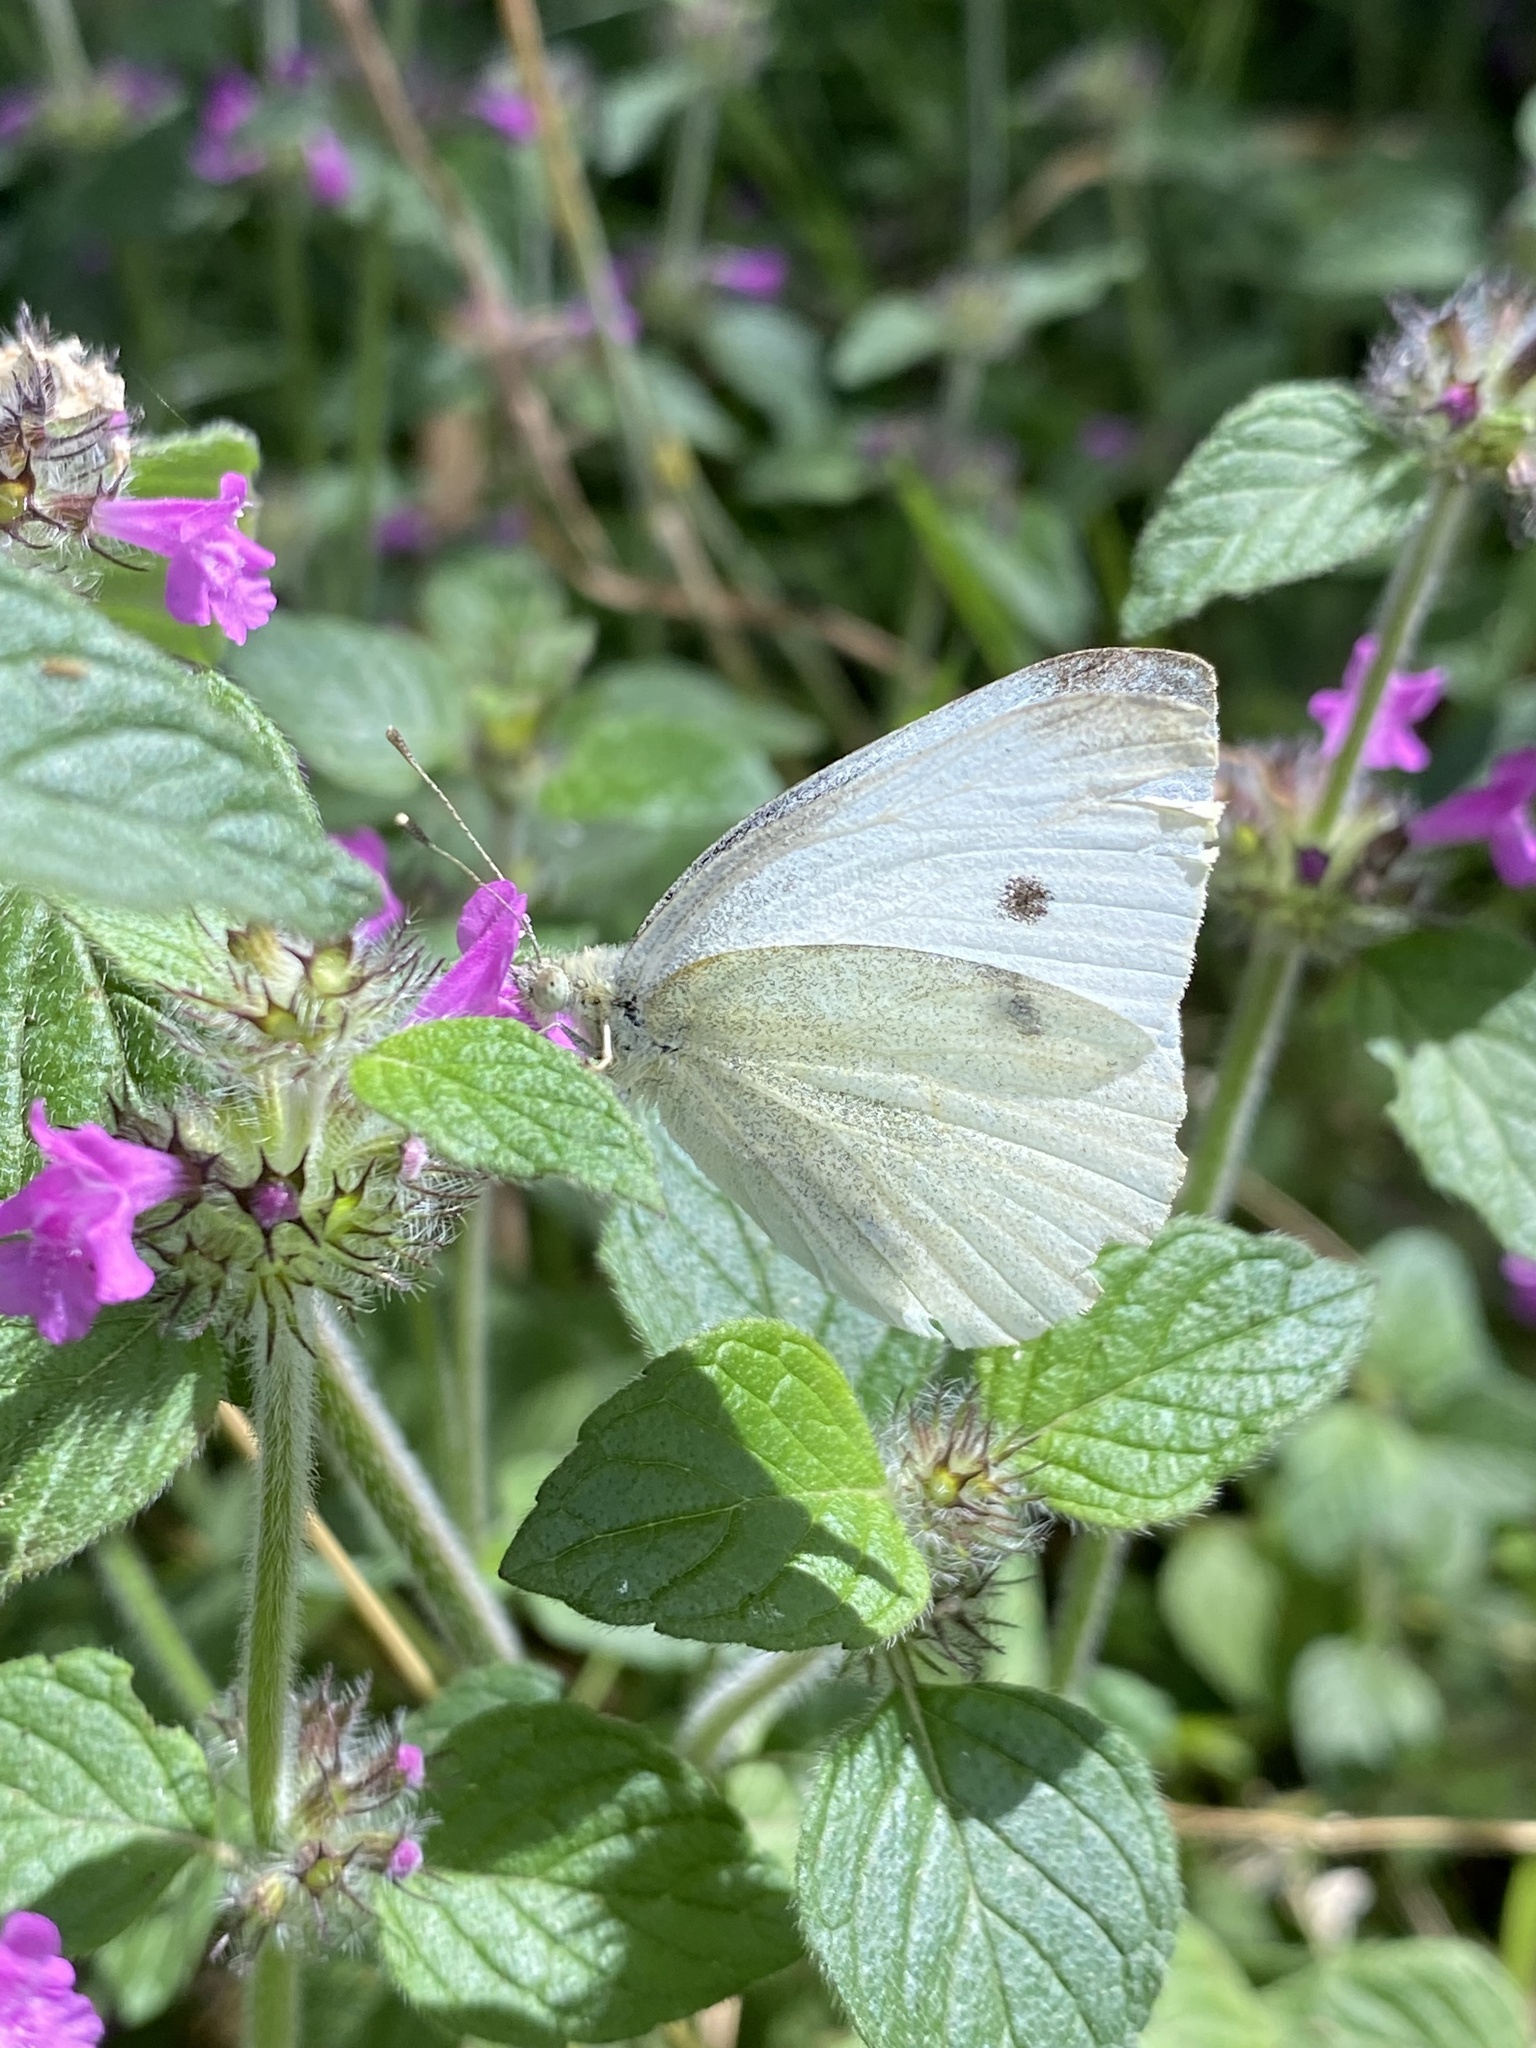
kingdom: Animalia
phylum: Arthropoda
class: Insecta
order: Lepidoptera
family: Pieridae
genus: Pieris
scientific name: Pieris rapae
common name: Small white
